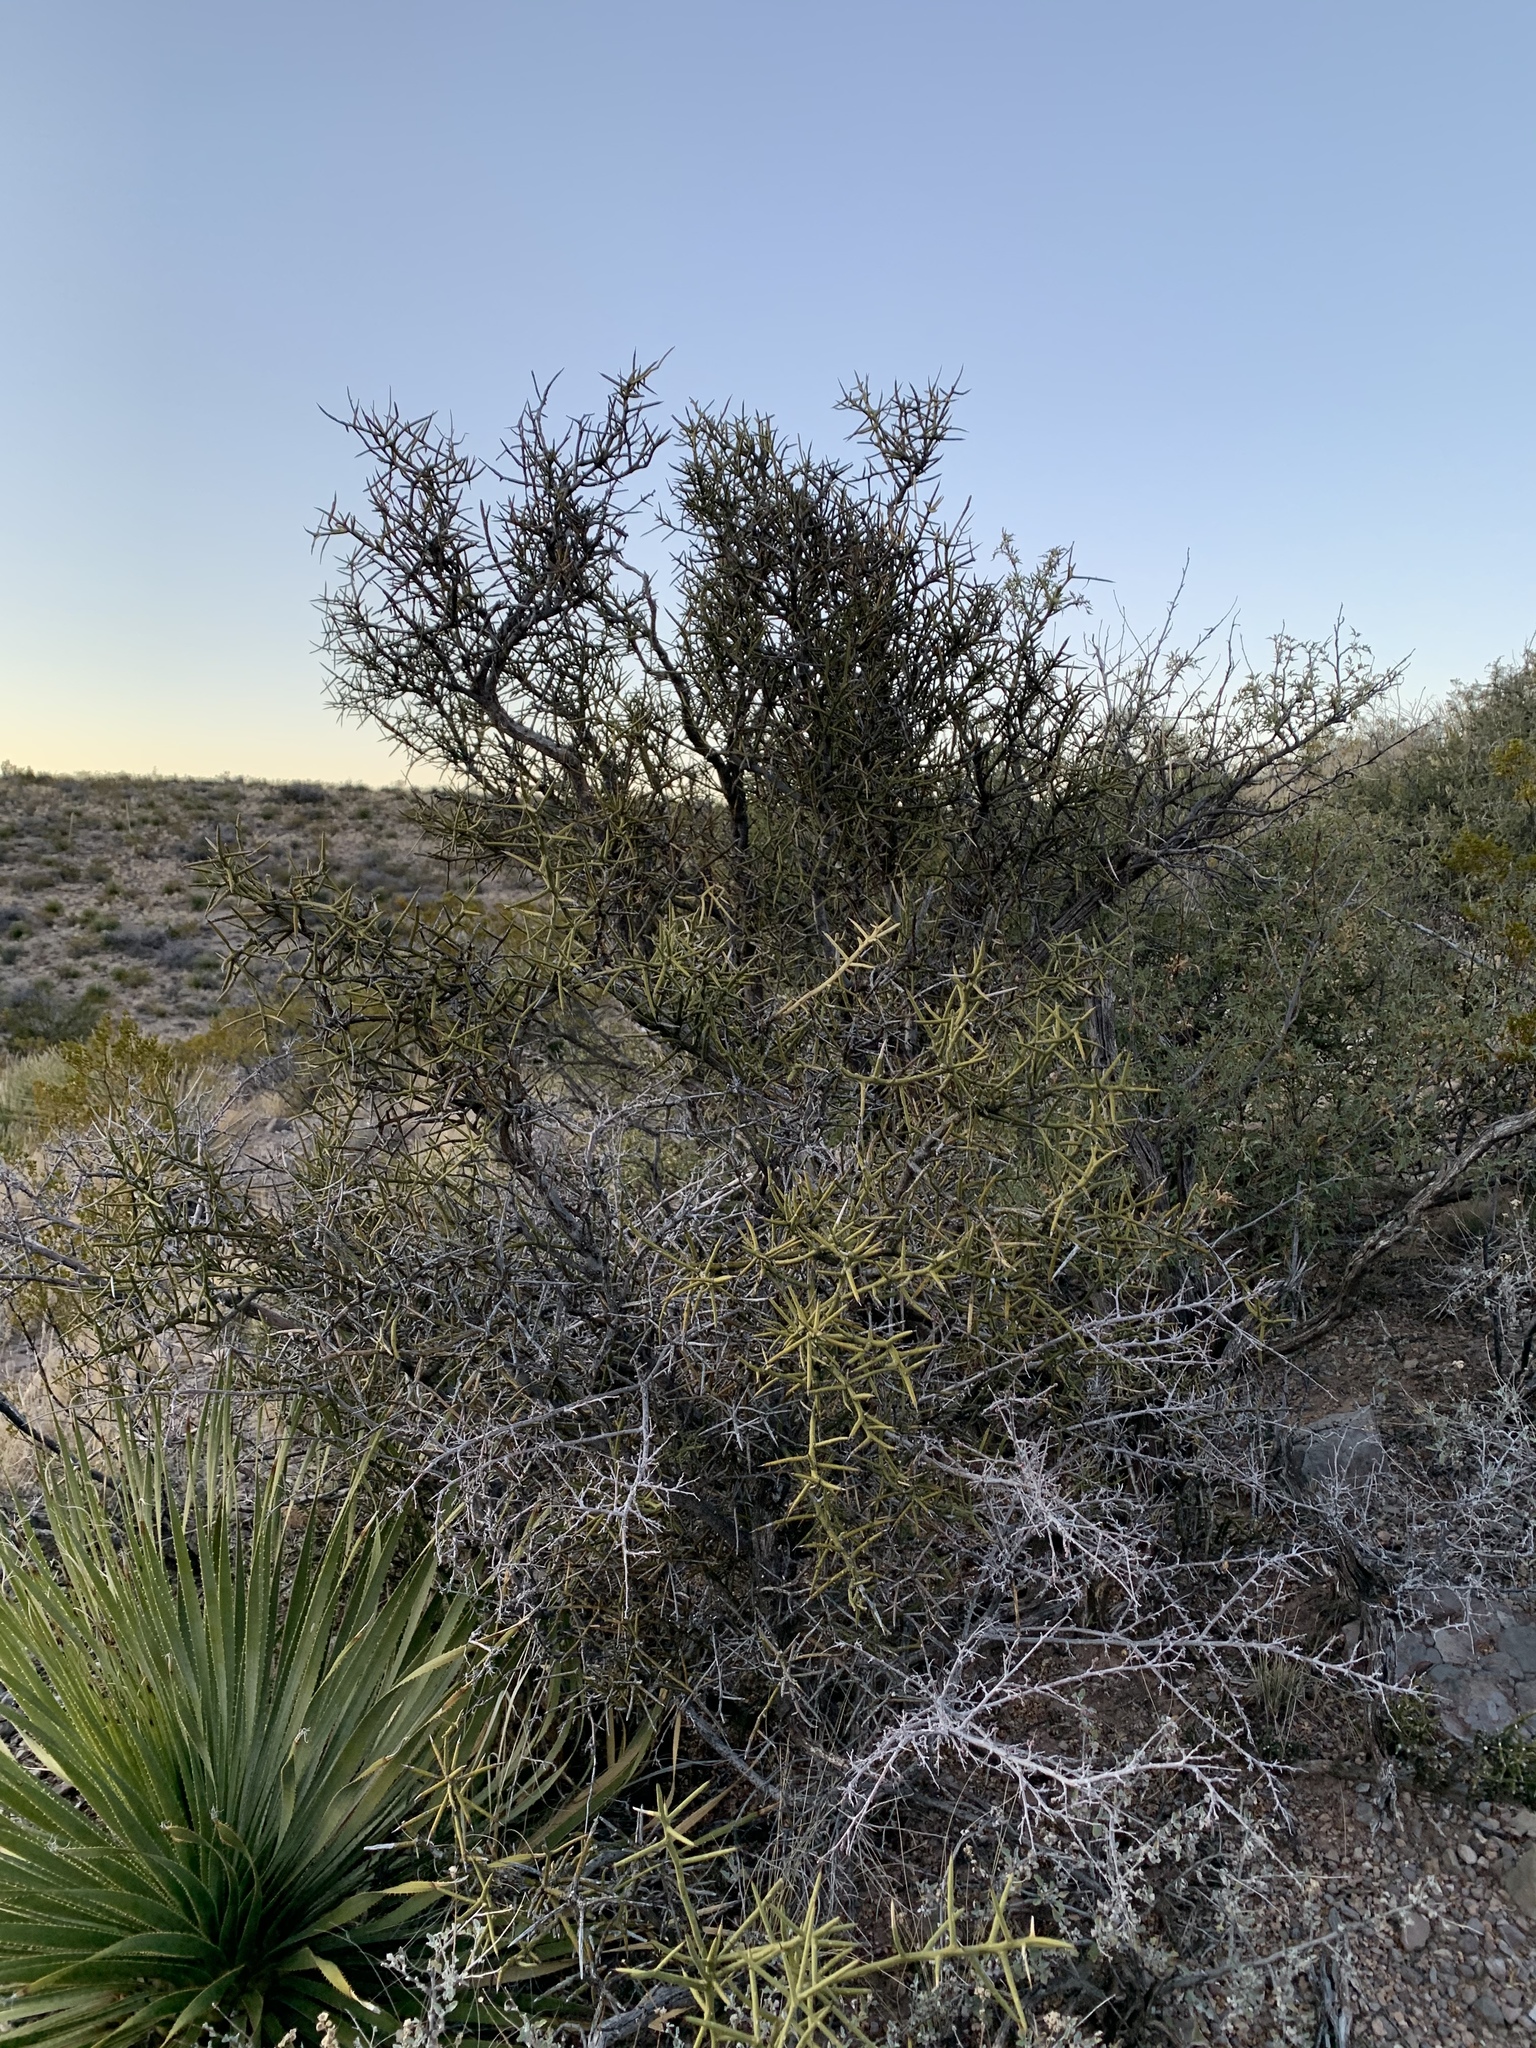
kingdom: Plantae
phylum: Tracheophyta
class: Magnoliopsida
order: Brassicales
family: Koeberliniaceae
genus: Koeberlinia
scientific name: Koeberlinia spinosa
